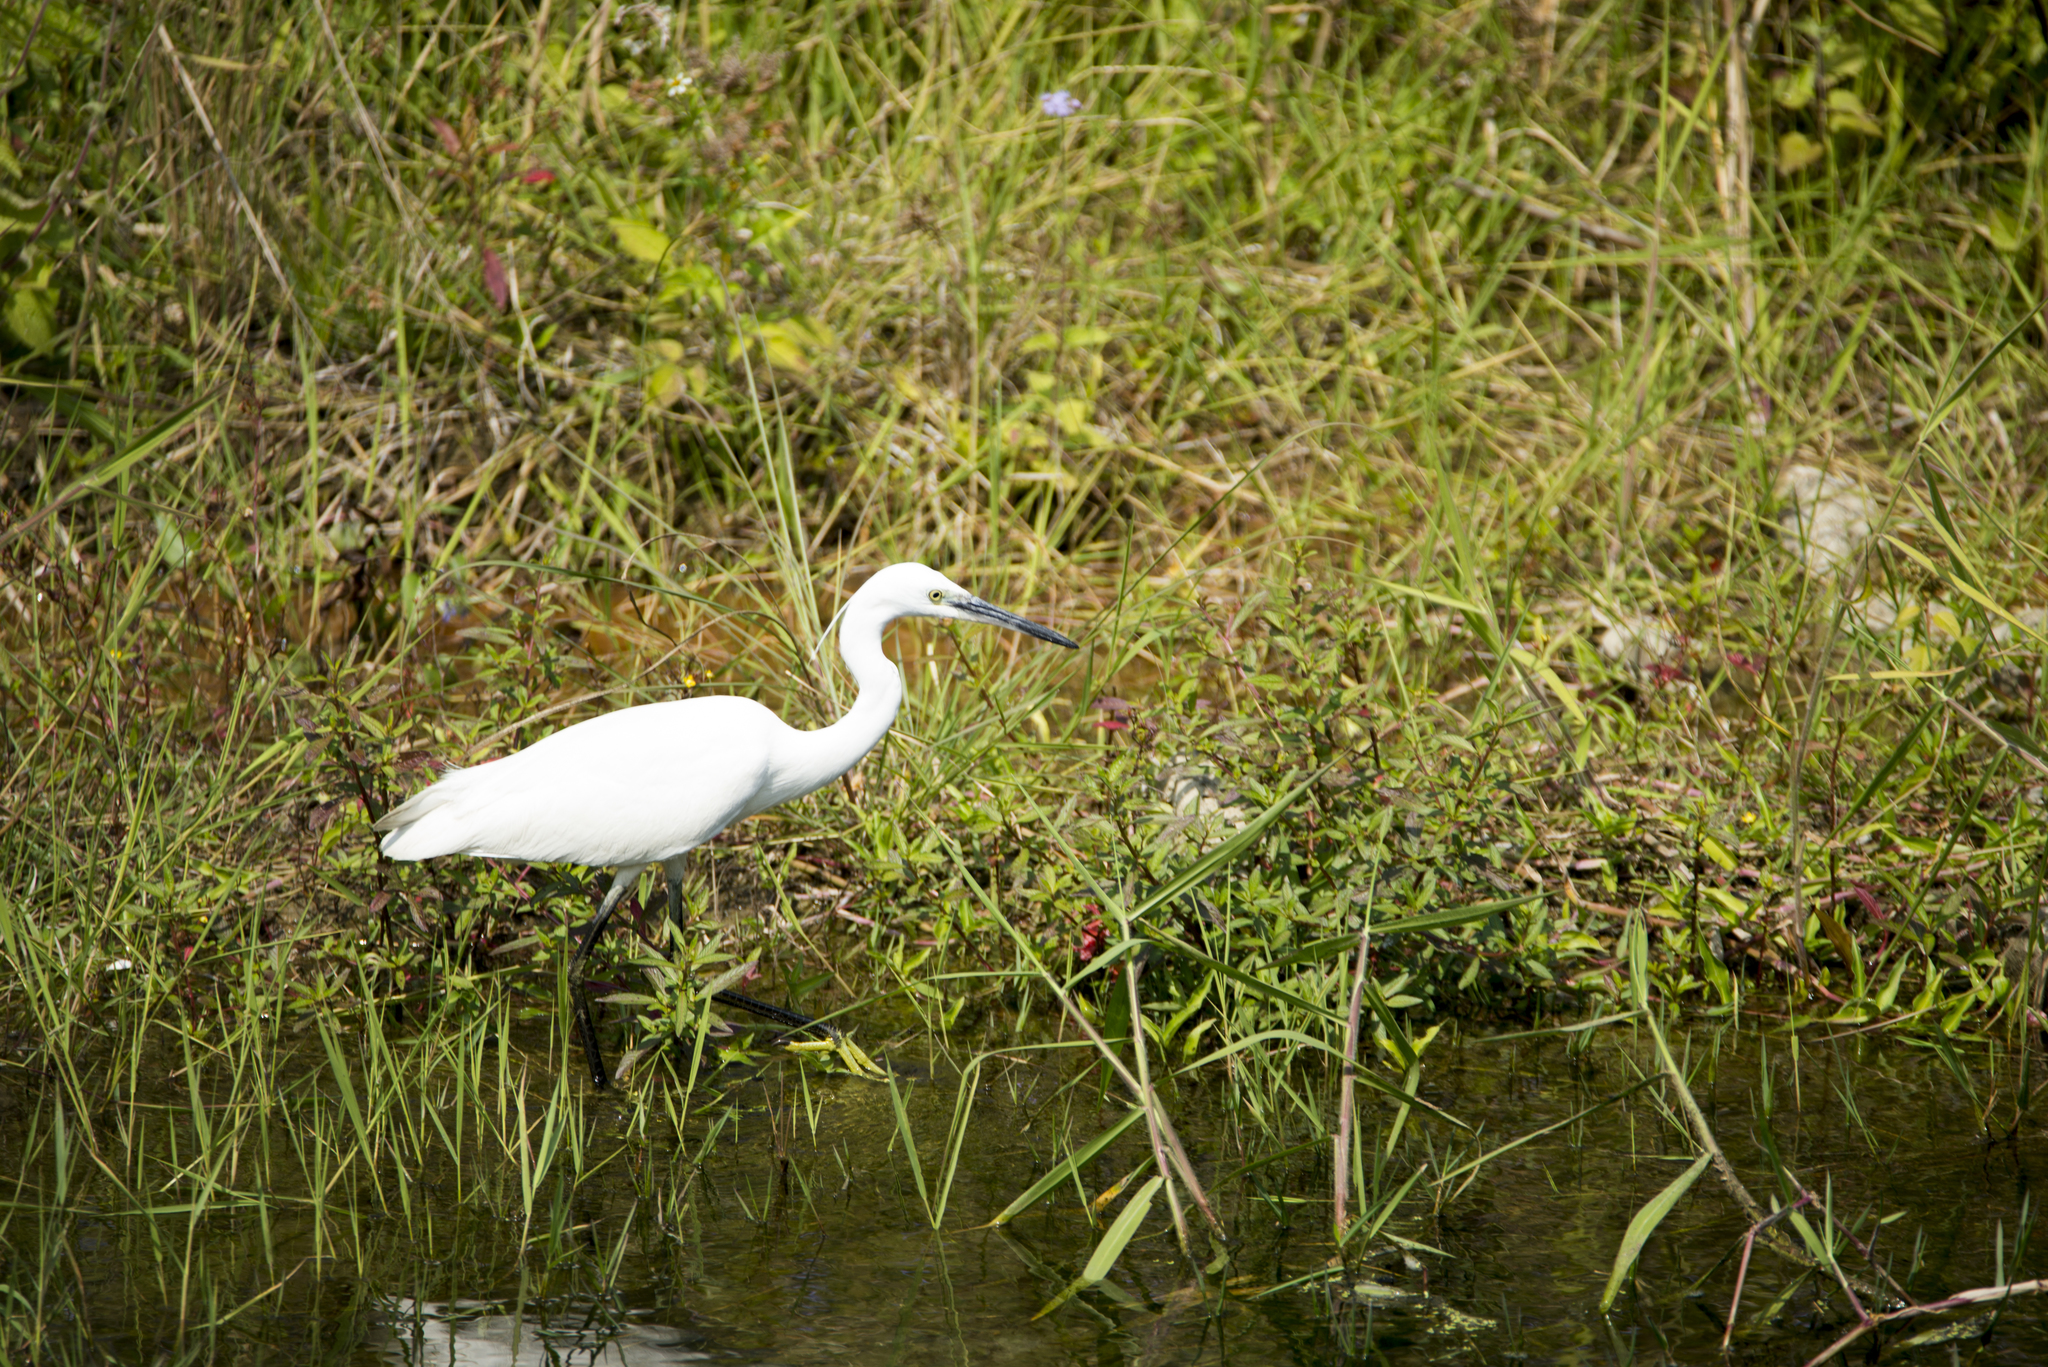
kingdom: Animalia
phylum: Chordata
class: Aves
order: Pelecaniformes
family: Ardeidae
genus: Egretta
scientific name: Egretta garzetta
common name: Little egret
